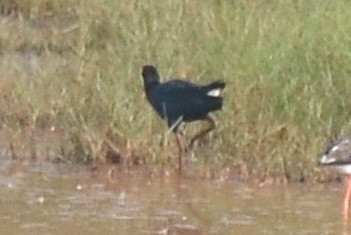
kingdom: Animalia
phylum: Chordata
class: Aves
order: Gruiformes
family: Rallidae
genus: Porphyrio
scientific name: Porphyrio porphyrio
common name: Purple swamphen
